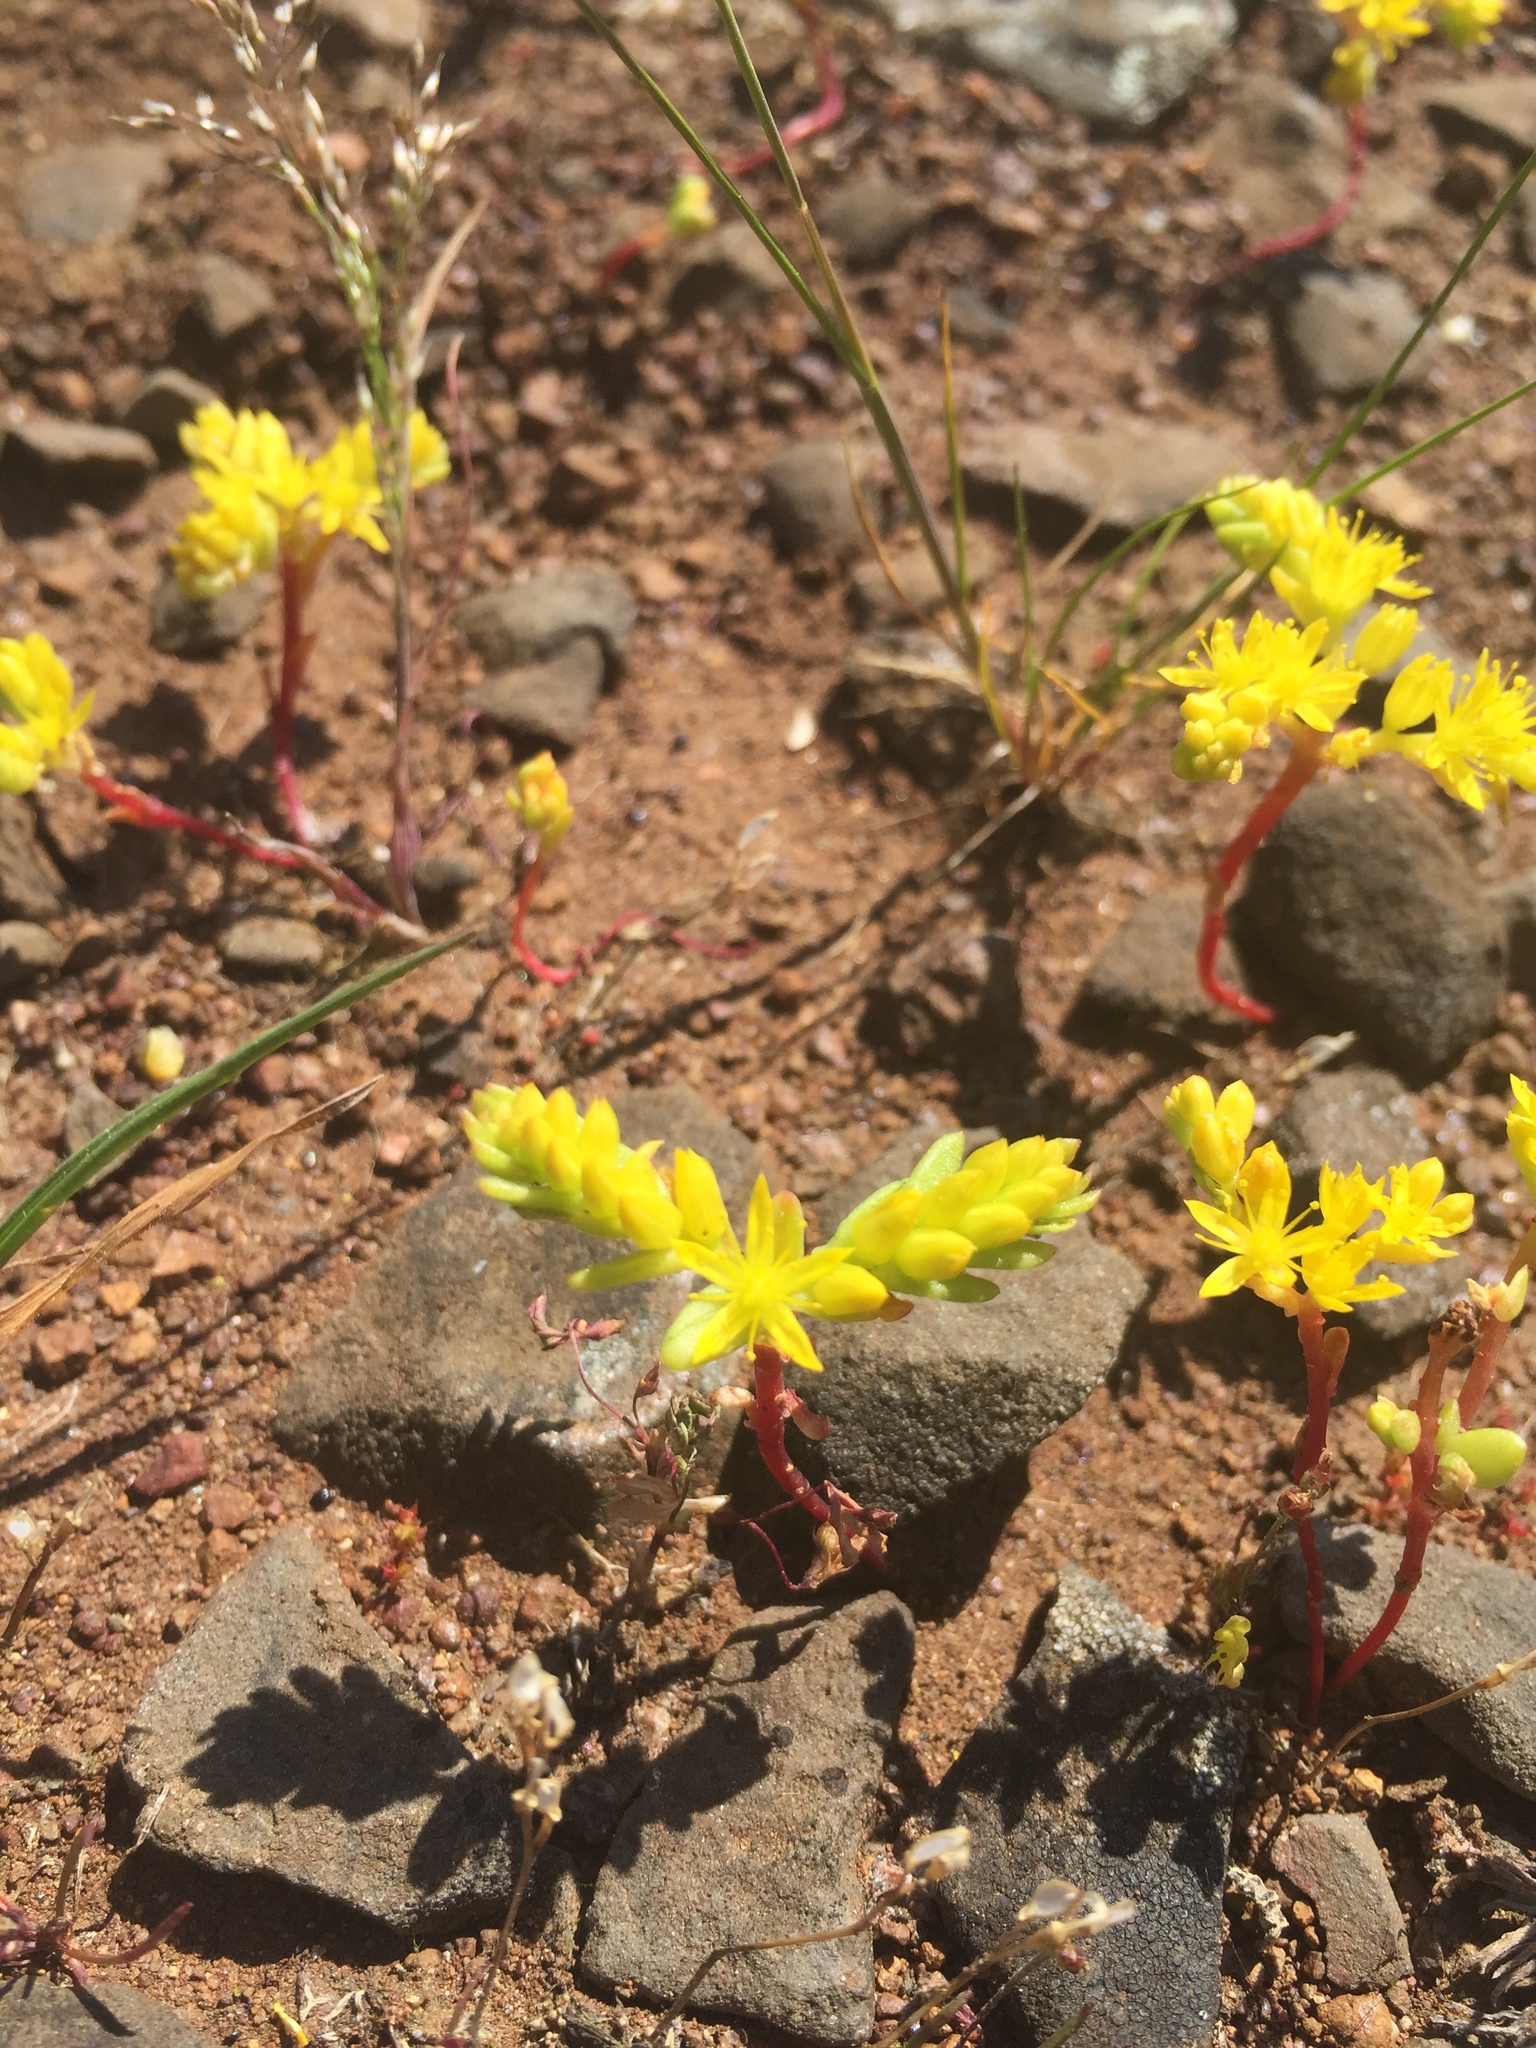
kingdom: Plantae
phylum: Tracheophyta
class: Magnoliopsida
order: Saxifragales
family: Crassulaceae
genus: Sedella
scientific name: Sedella pumila
